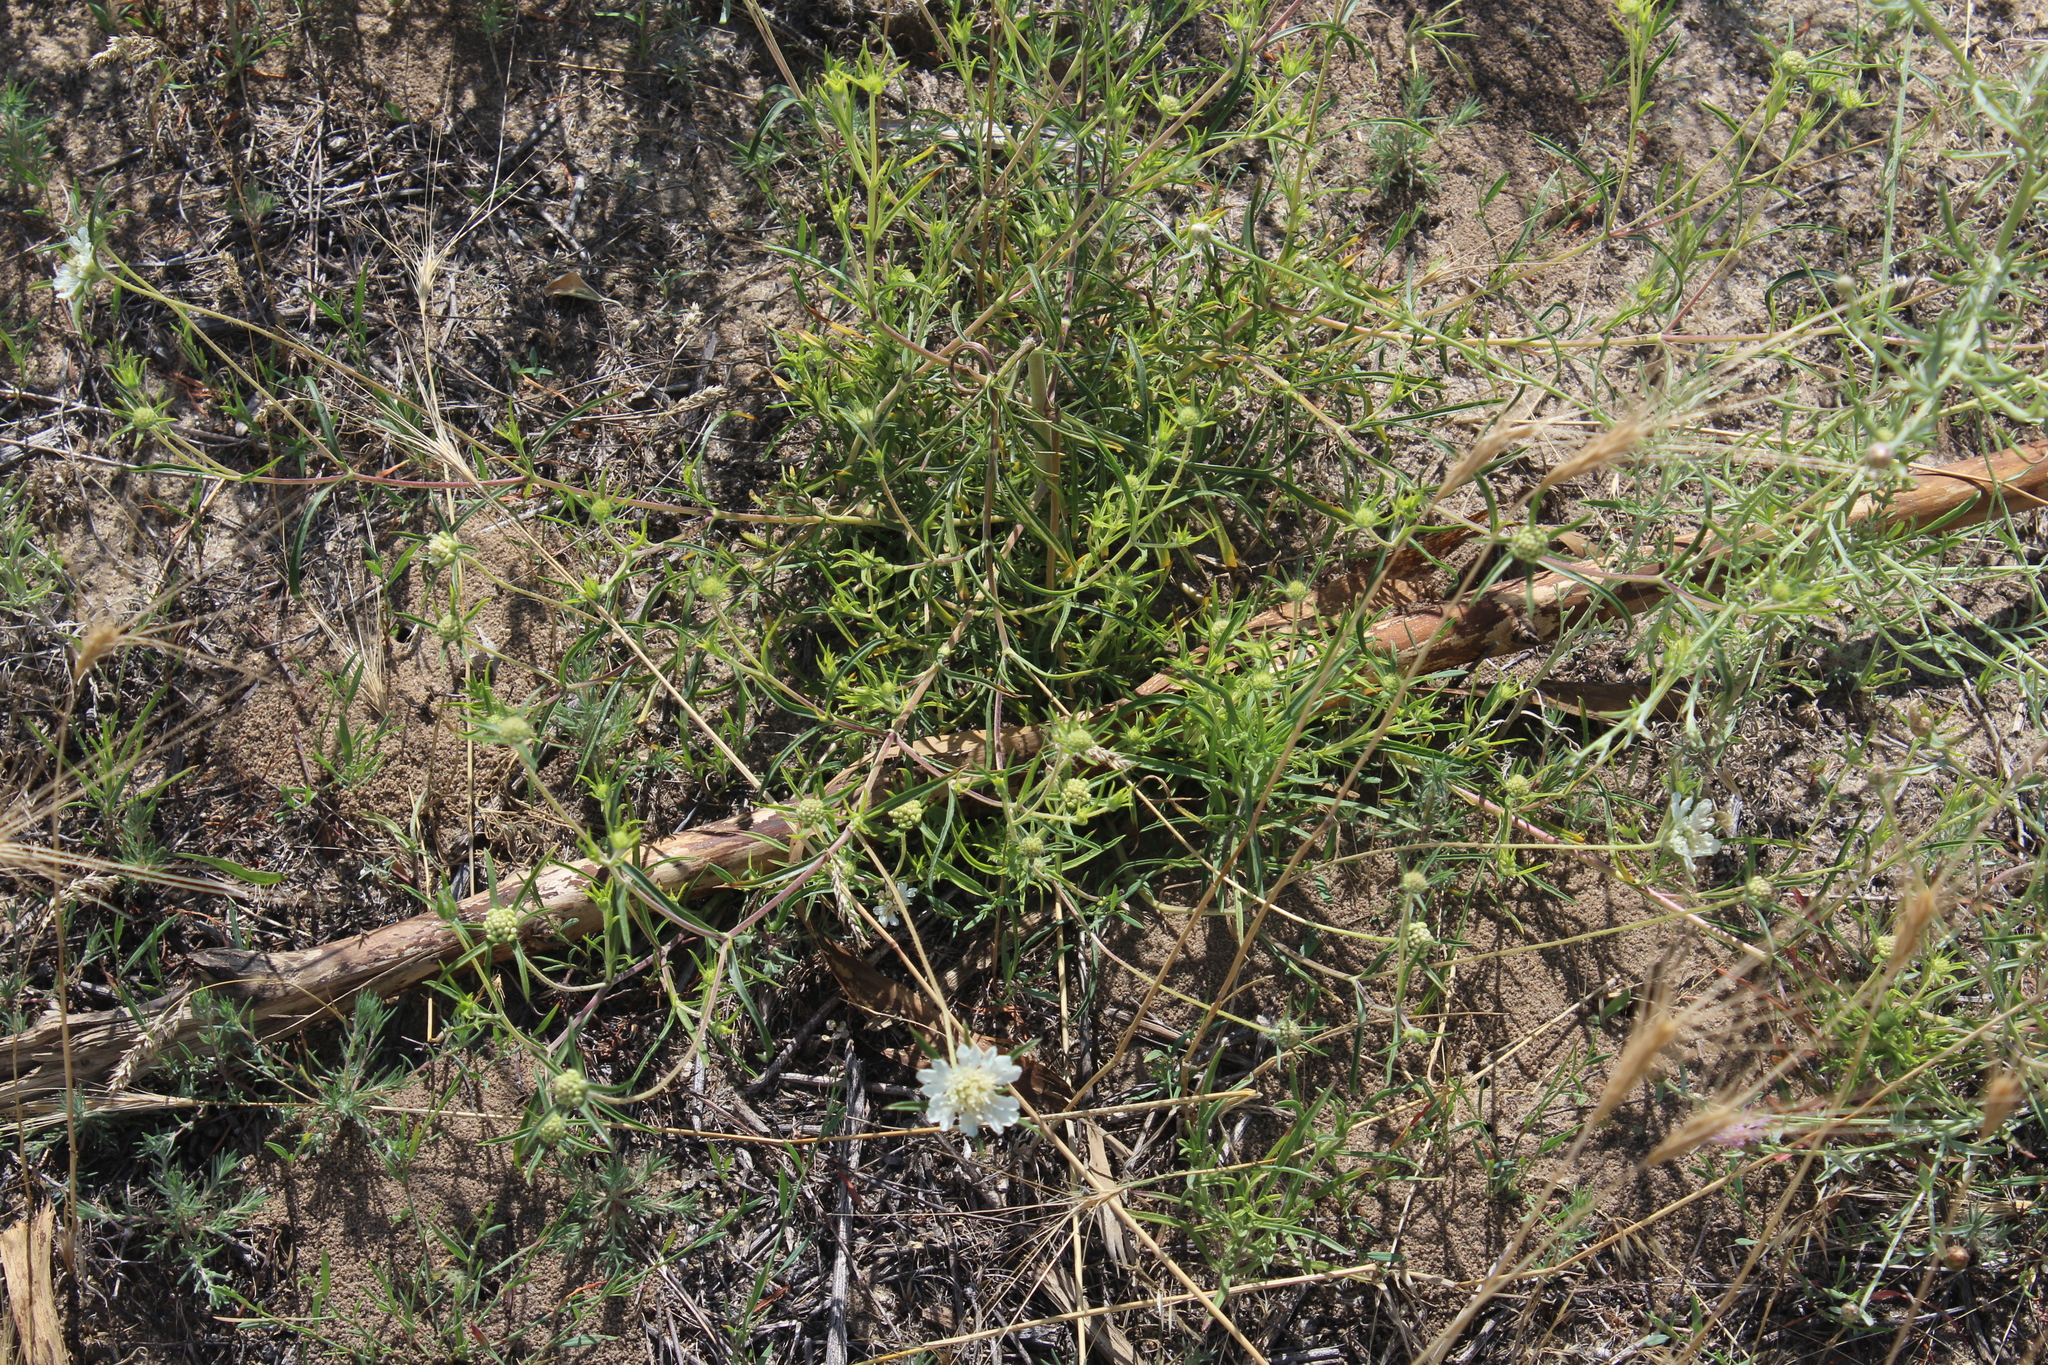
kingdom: Plantae
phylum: Tracheophyta
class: Magnoliopsida
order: Dipsacales
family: Caprifoliaceae
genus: Lomelosia
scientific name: Lomelosia argentea
